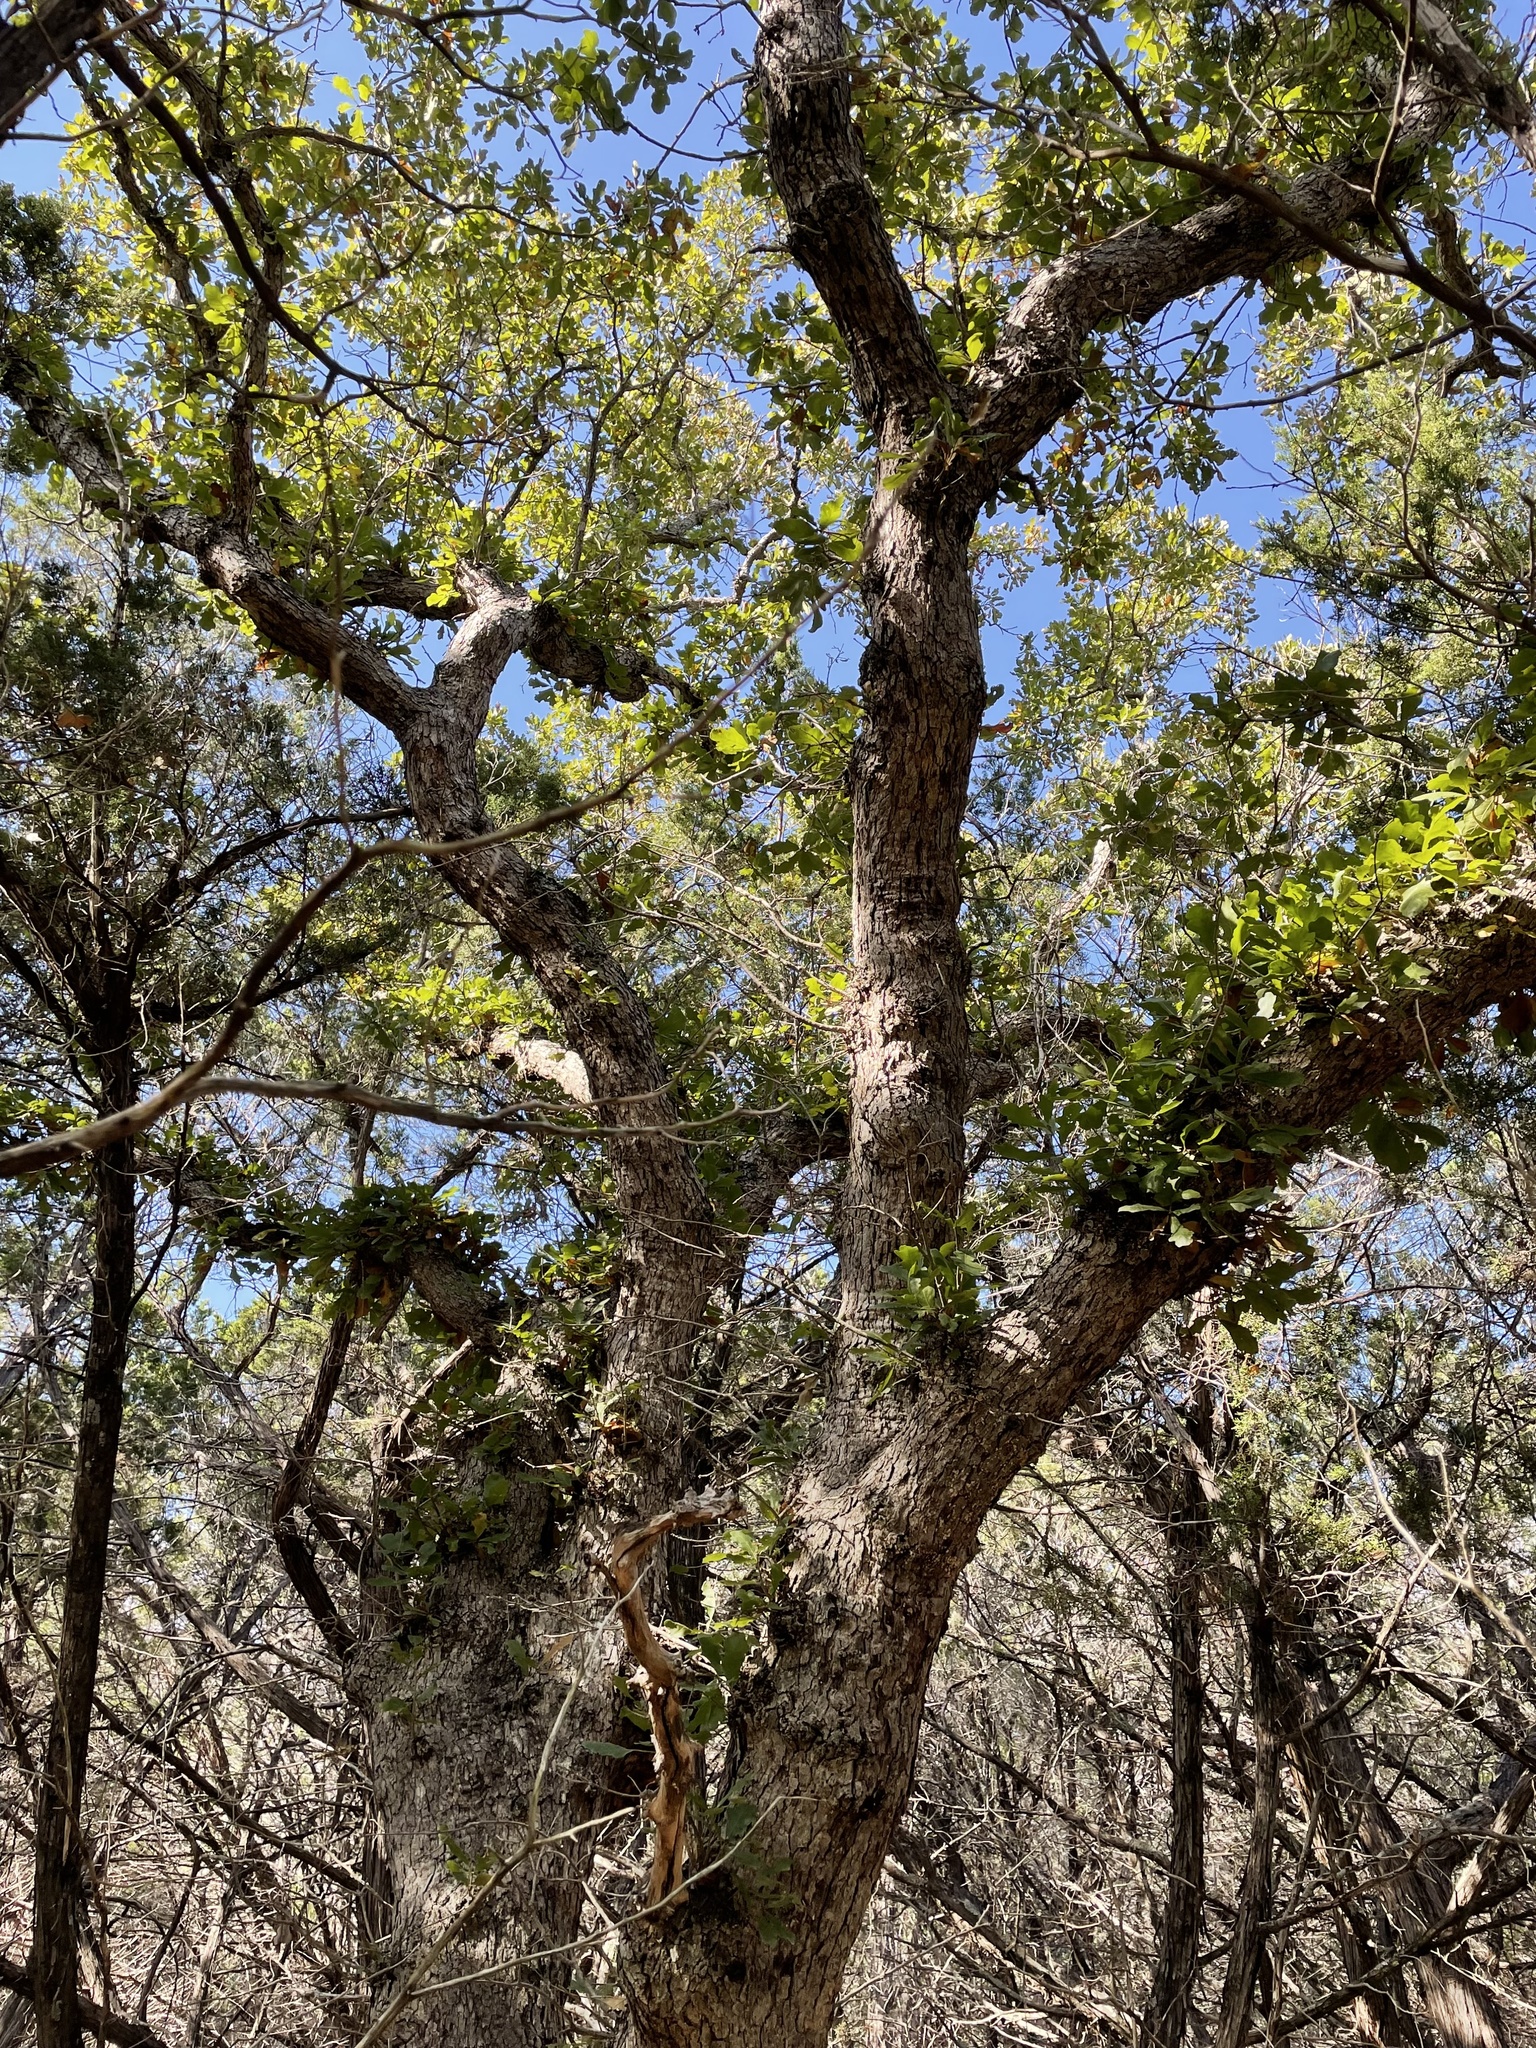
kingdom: Plantae
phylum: Tracheophyta
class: Magnoliopsida
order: Fagales
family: Fagaceae
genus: Quercus
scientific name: Quercus sinuata
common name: Durand oak
